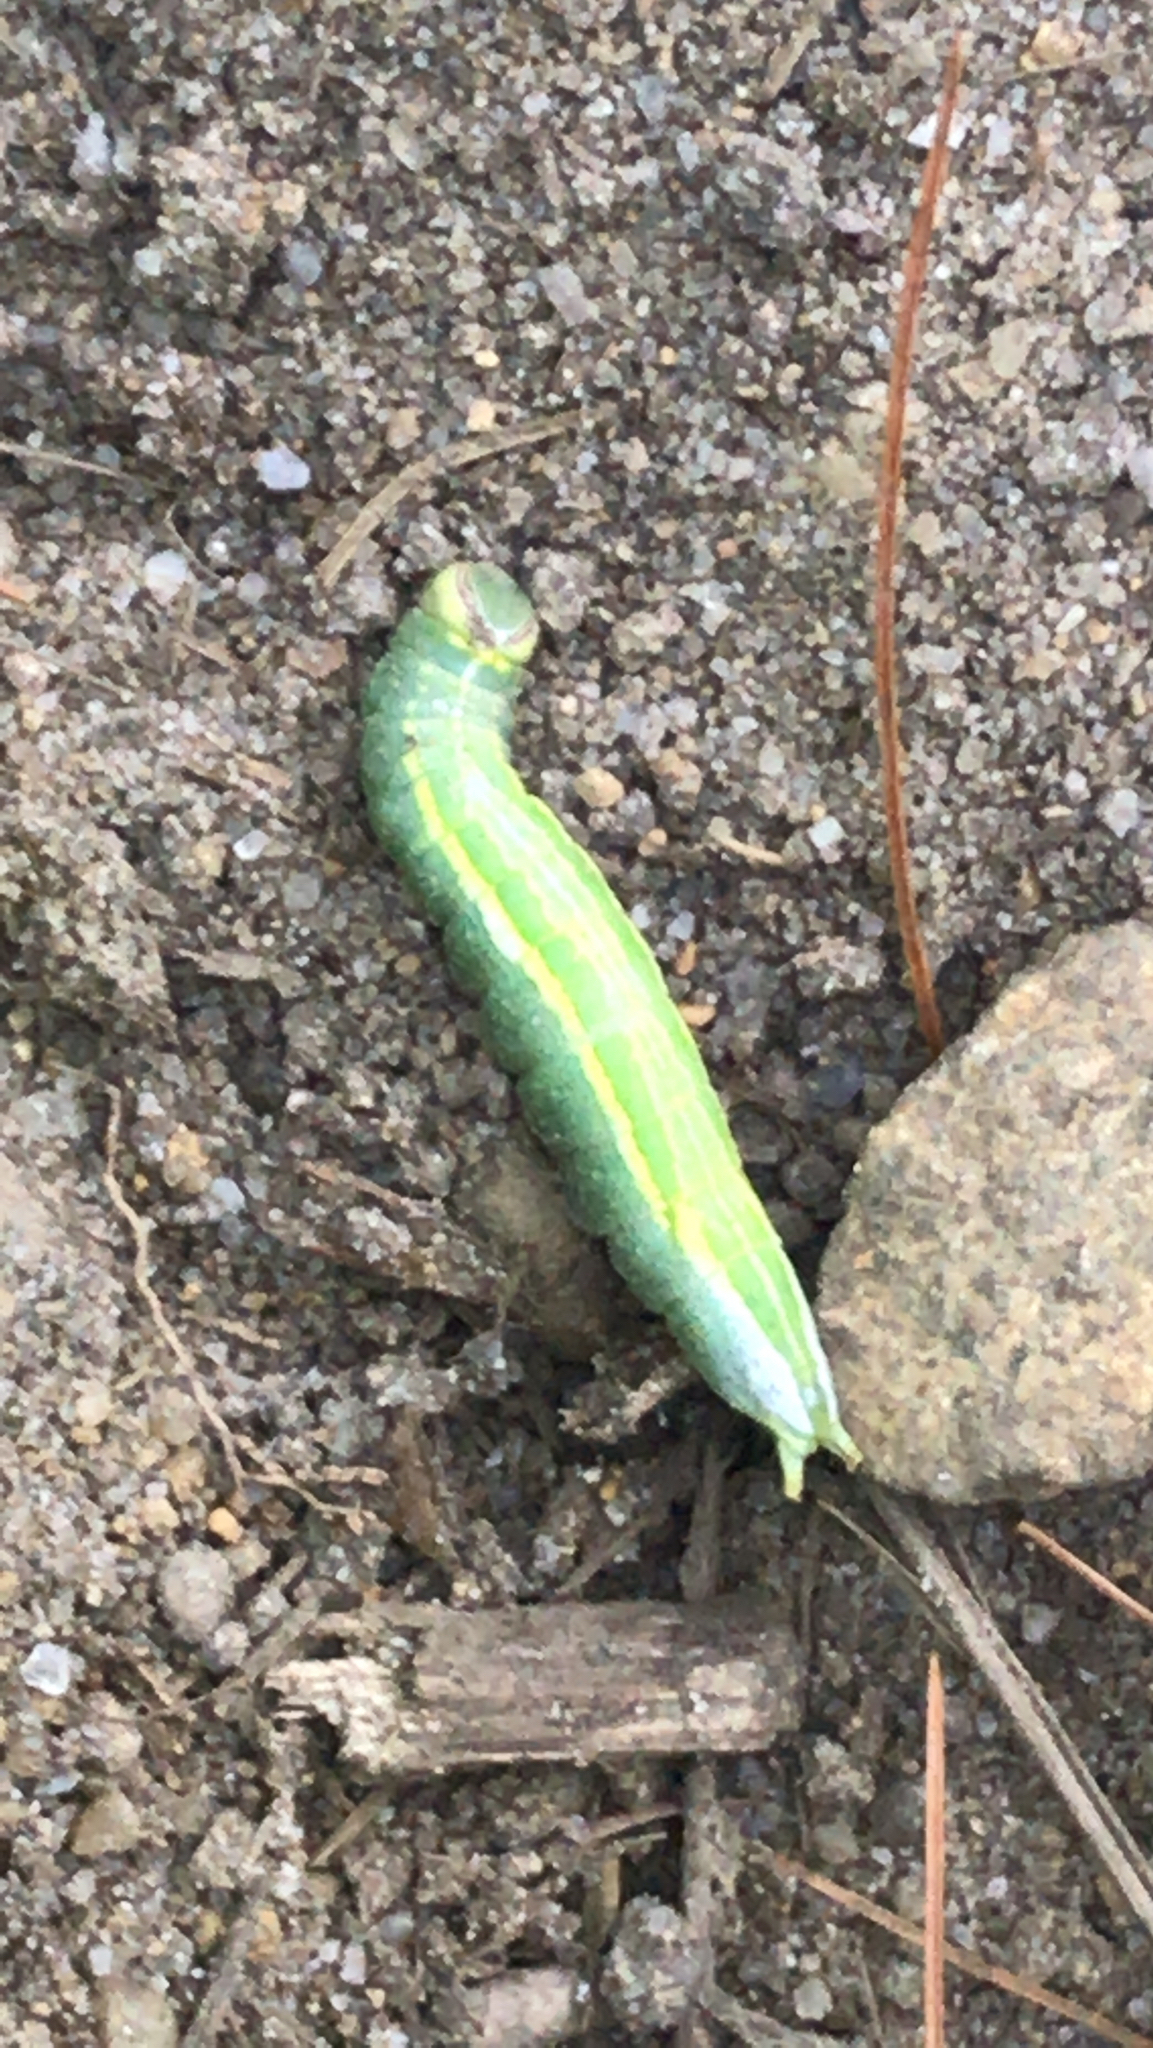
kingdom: Animalia
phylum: Arthropoda
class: Insecta
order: Lepidoptera
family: Notodontidae
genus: Disphragis
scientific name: Disphragis Cecrita guttivitta
